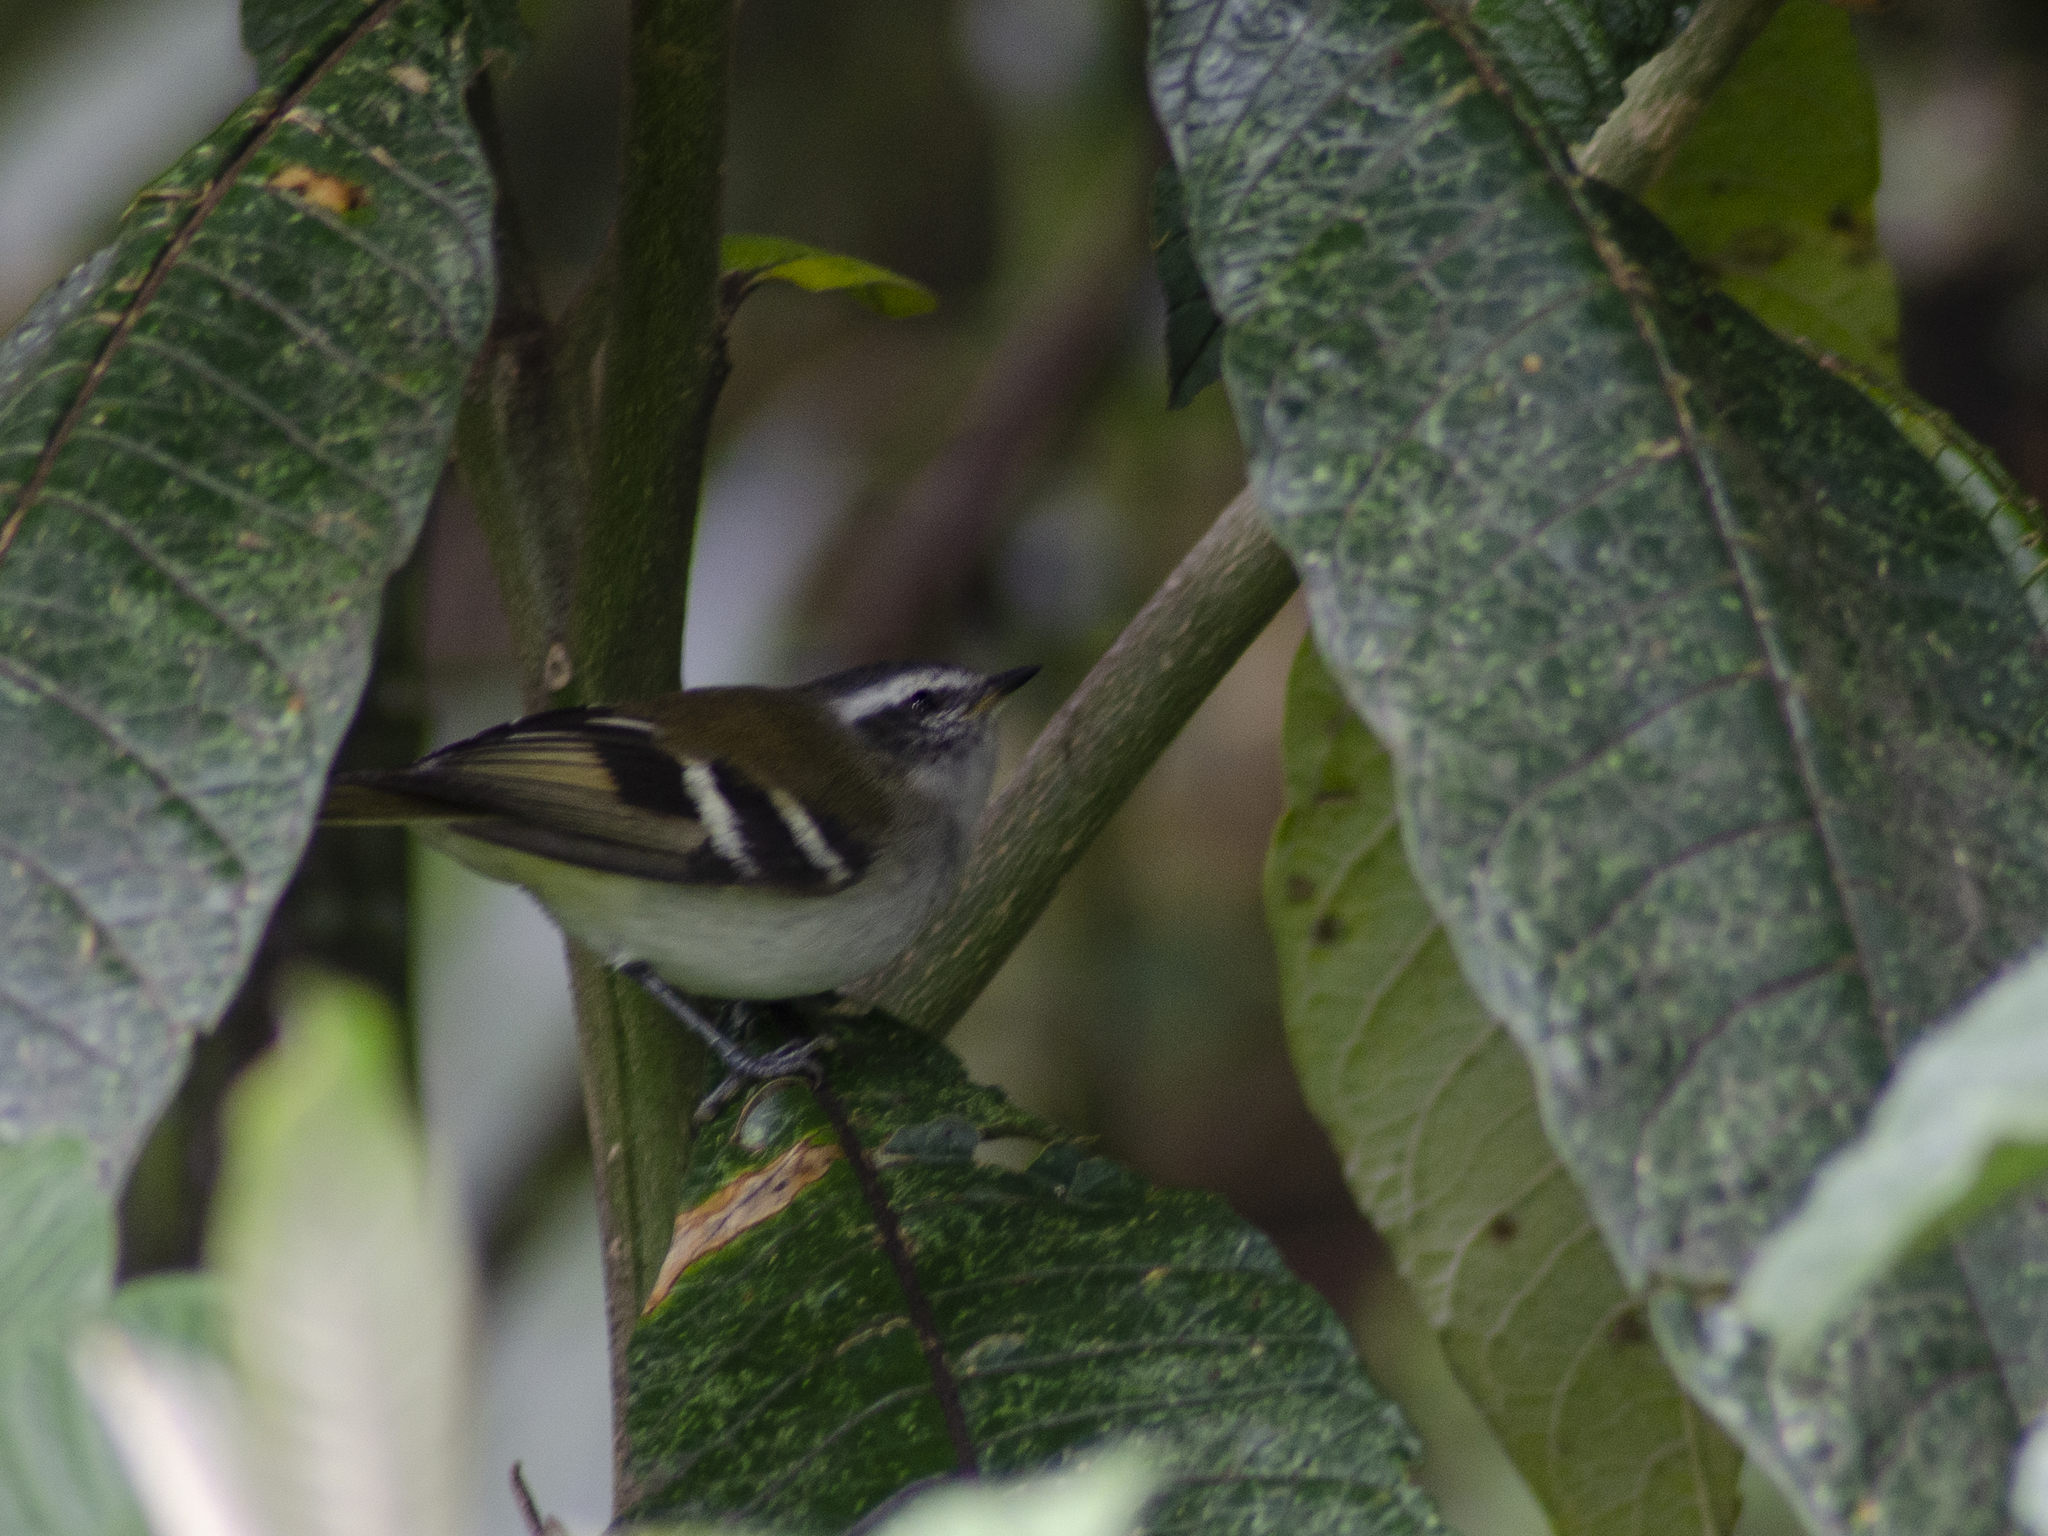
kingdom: Animalia
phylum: Chordata
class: Aves
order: Passeriformes
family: Tyrannidae
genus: Mecocerculus
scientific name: Mecocerculus stictopterus
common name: White-banded tyrannulet
